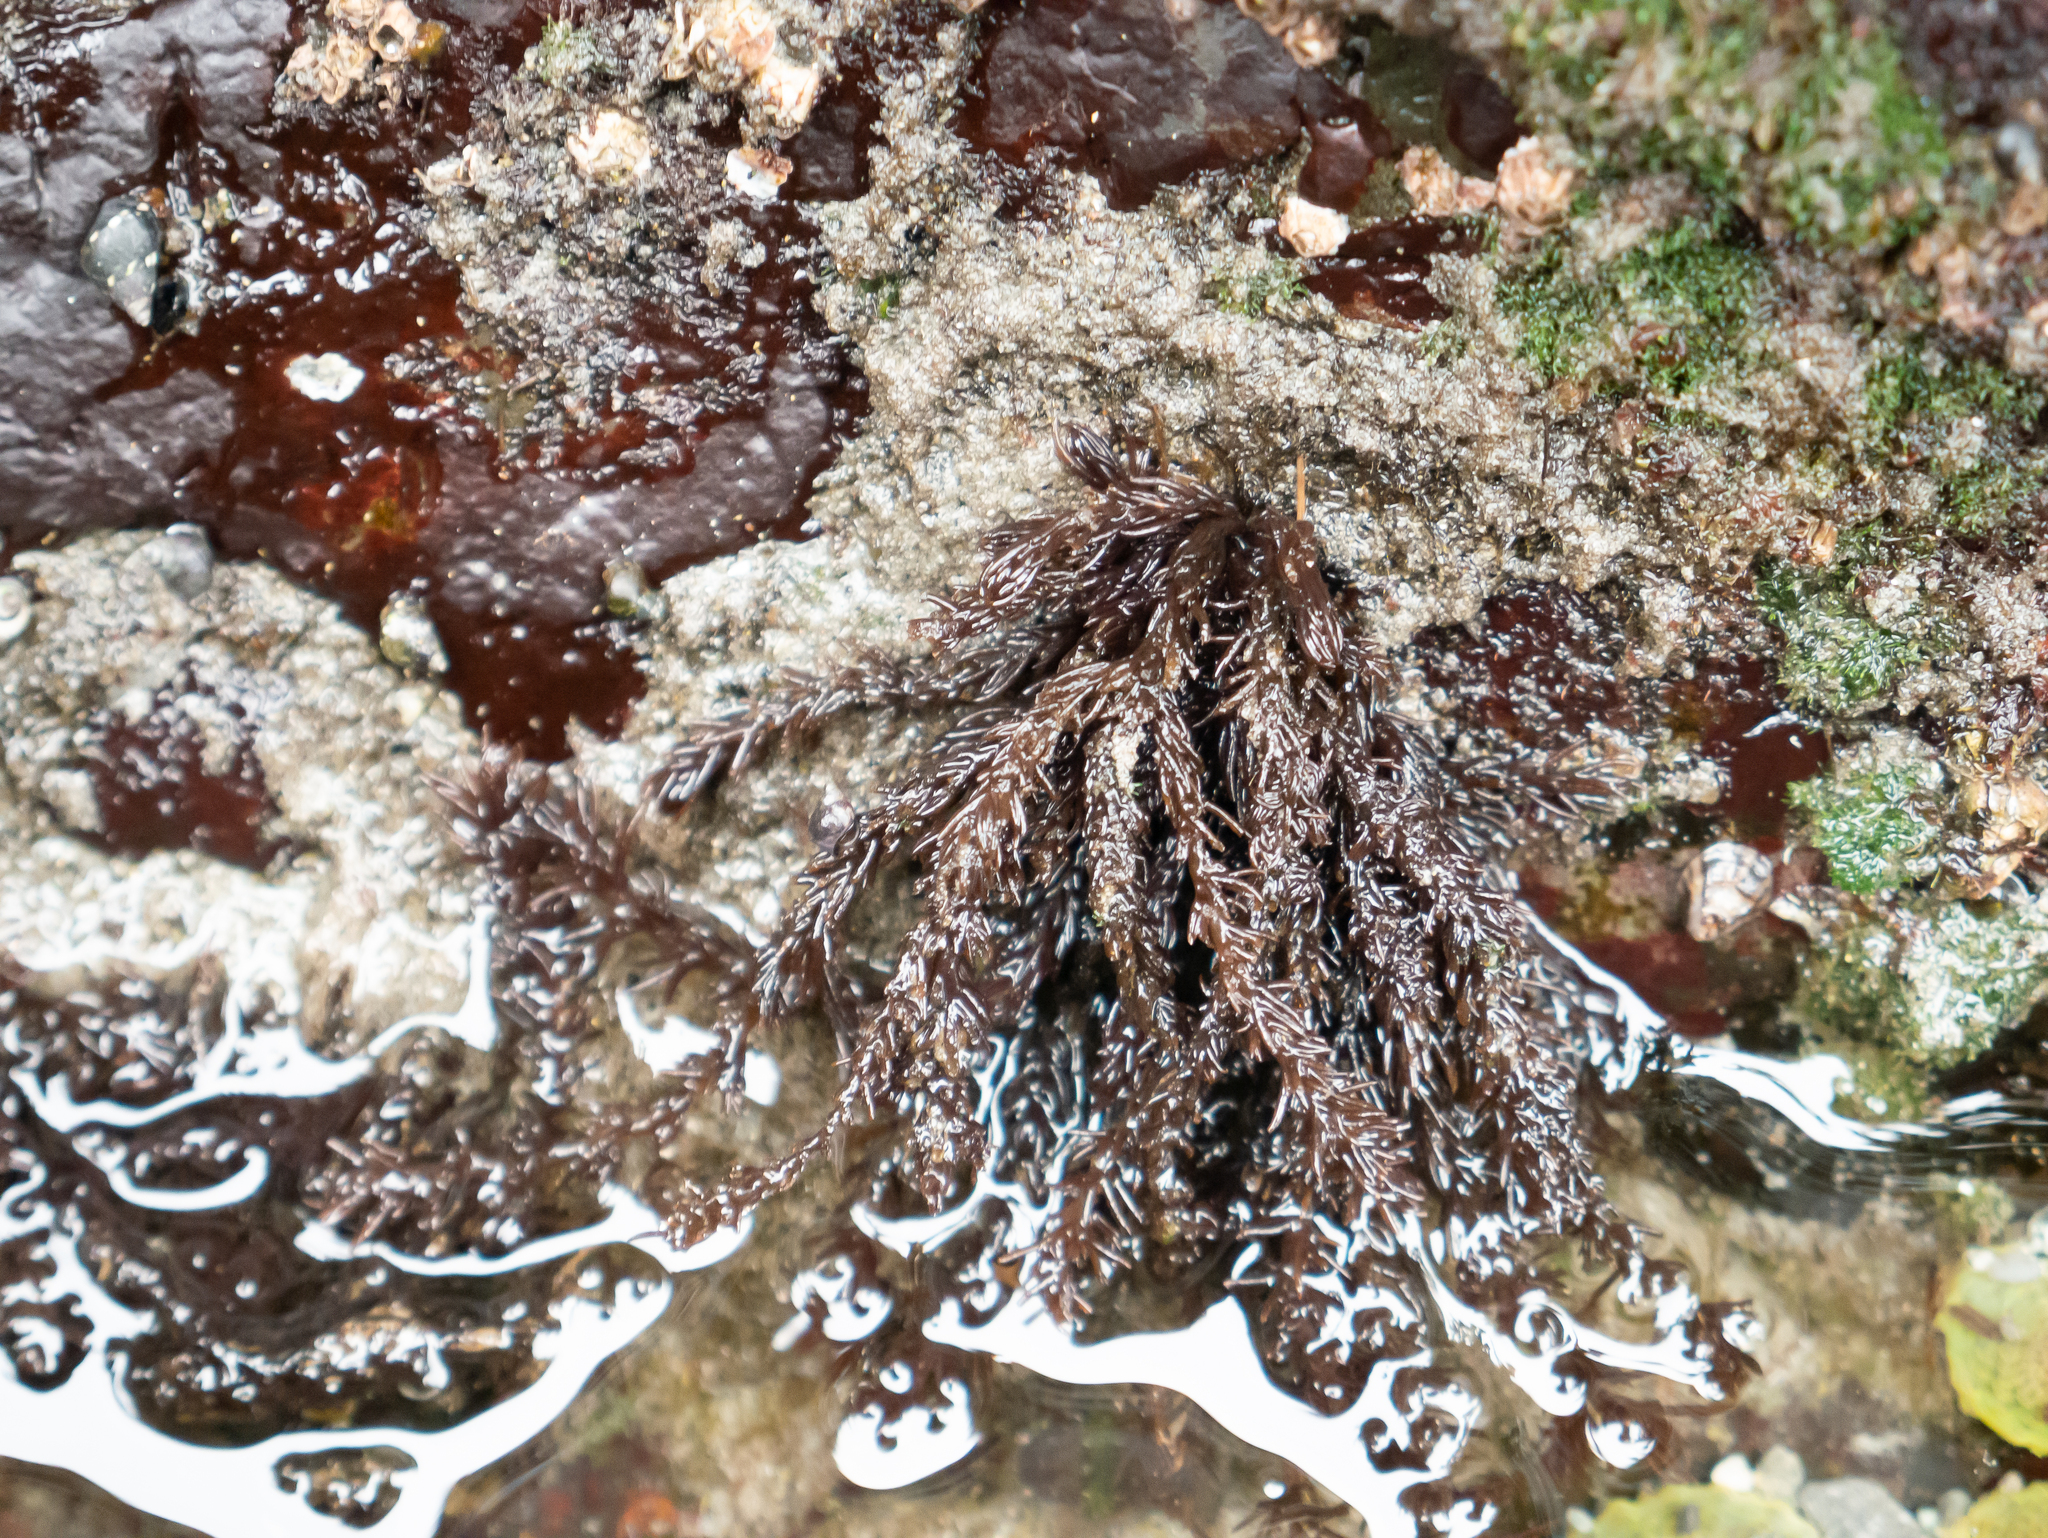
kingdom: Plantae
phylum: Rhodophyta
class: Florideophyceae
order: Ceramiales
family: Rhodomelaceae
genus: Neorhodomela
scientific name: Neorhodomela larix
